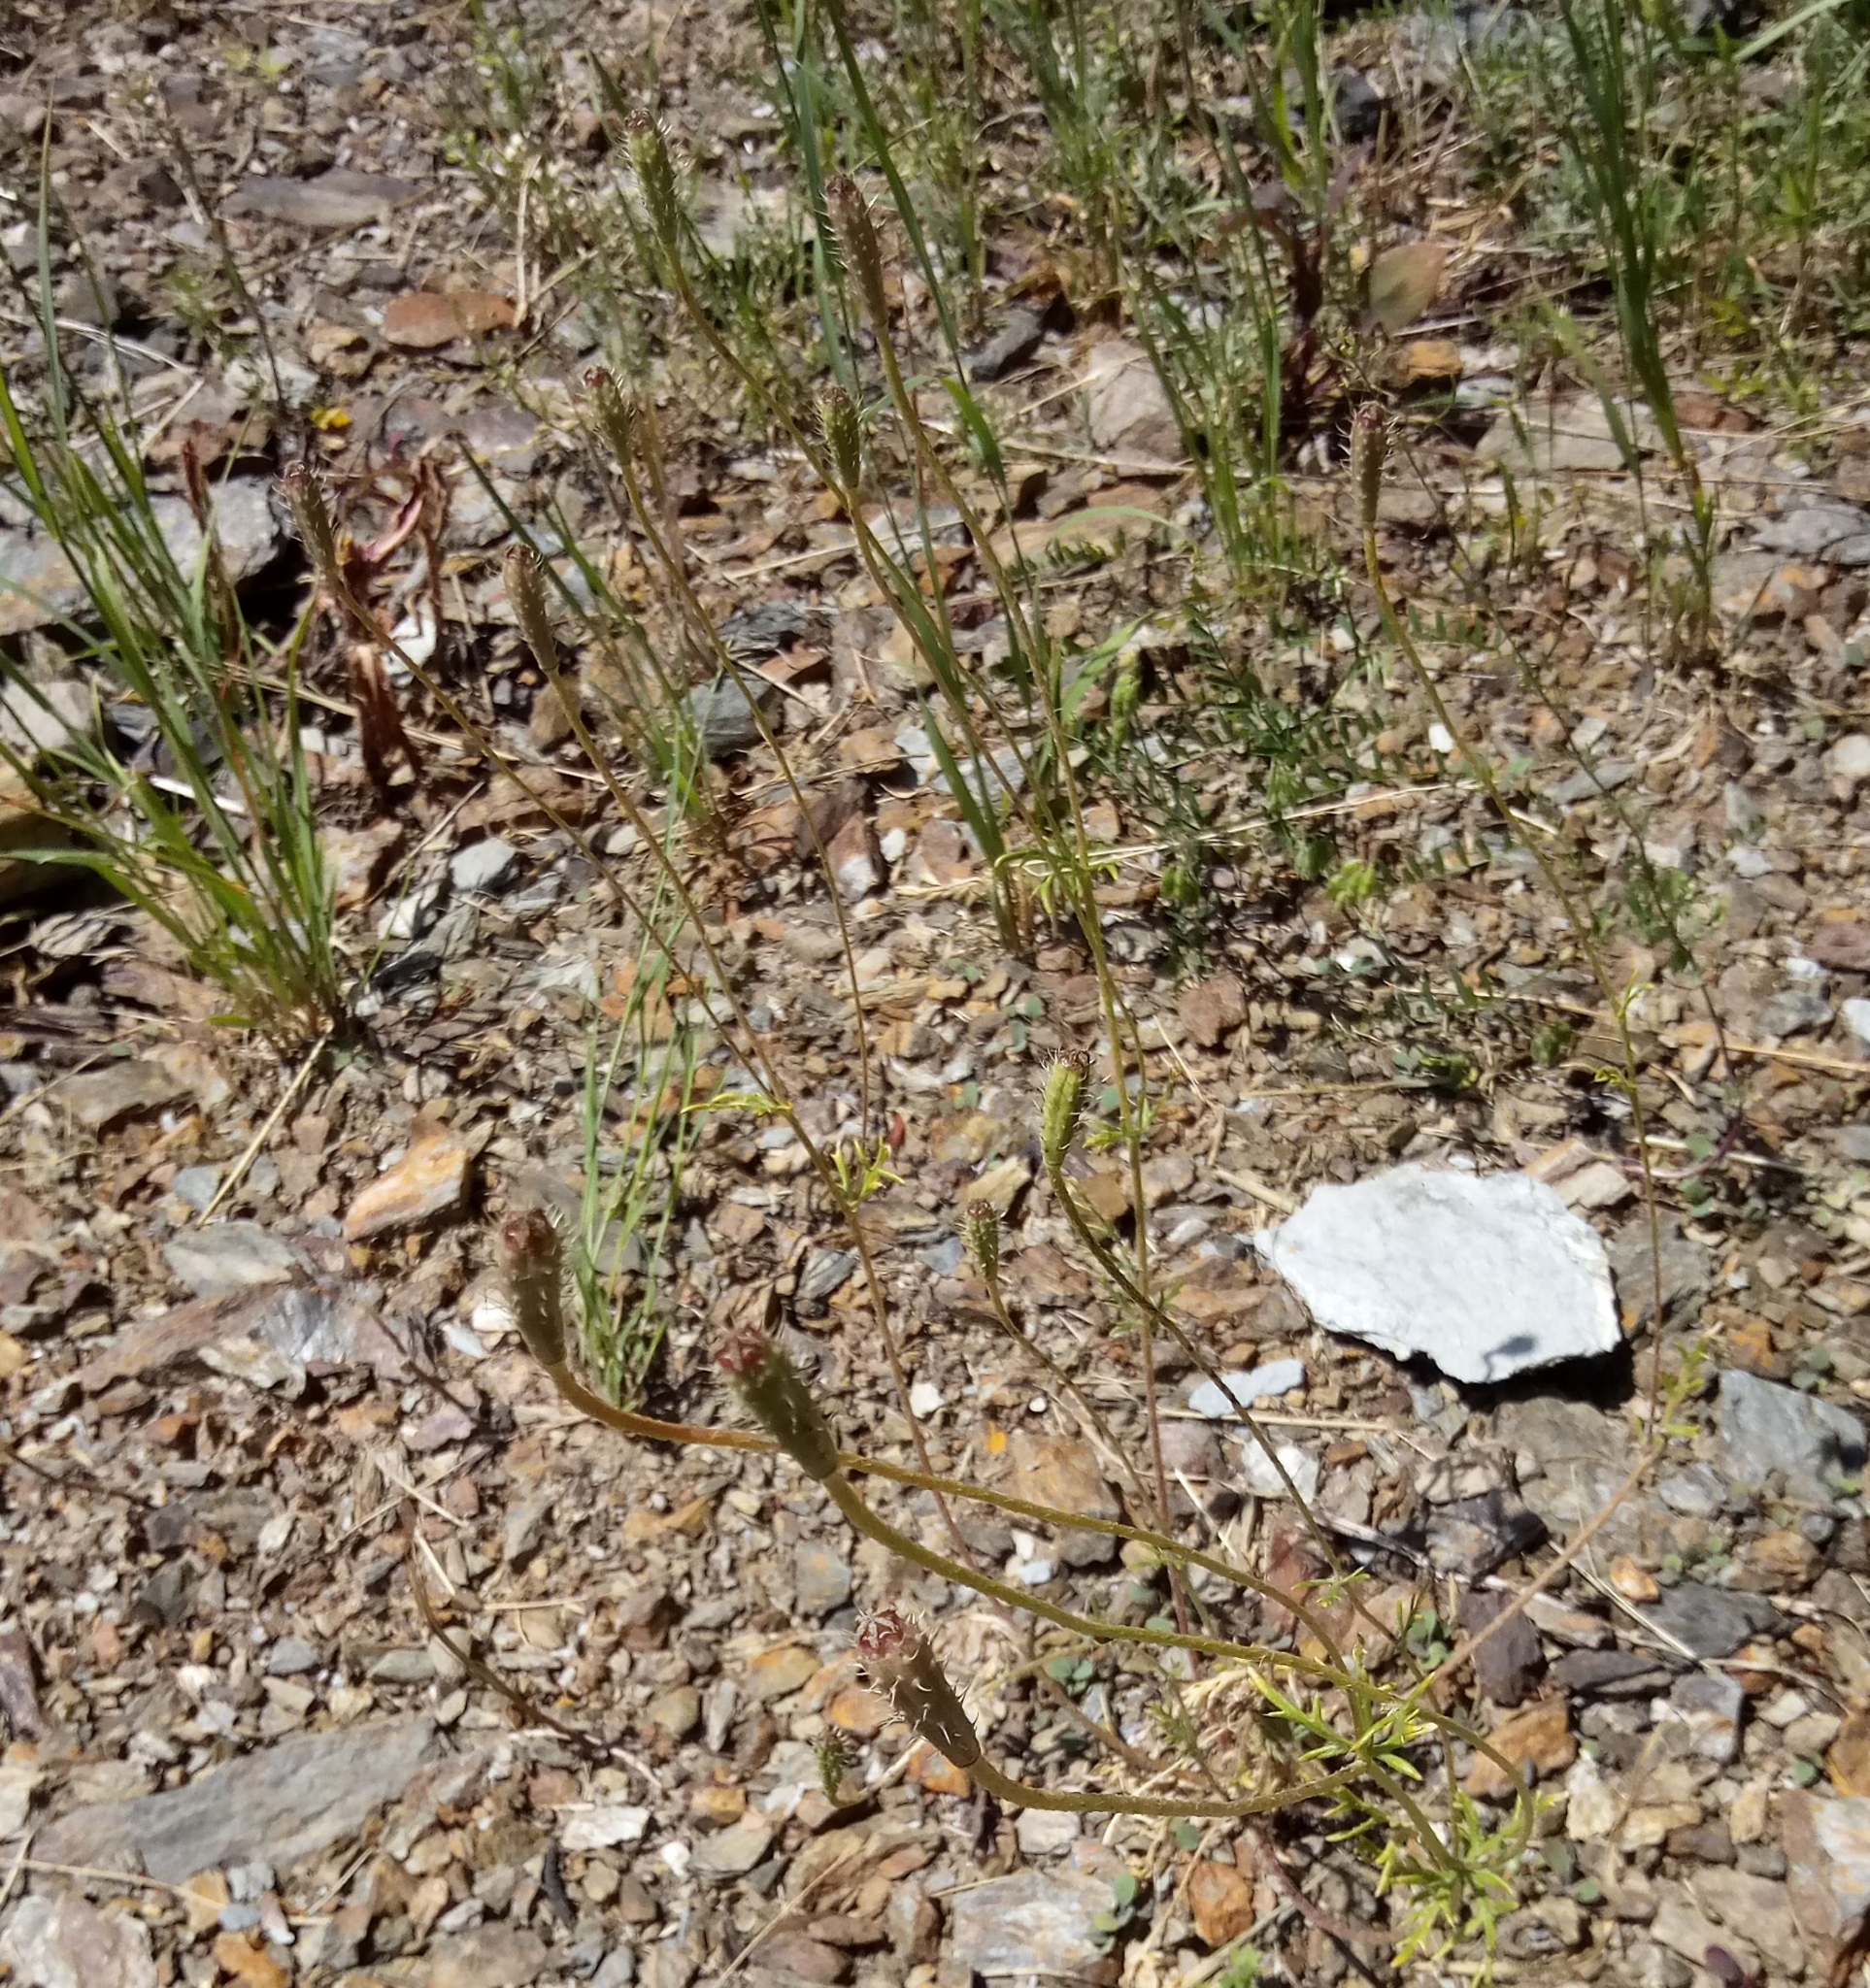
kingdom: Plantae
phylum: Tracheophyta
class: Magnoliopsida
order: Ranunculales
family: Papaveraceae
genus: Roemeria
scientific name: Roemeria argemone
